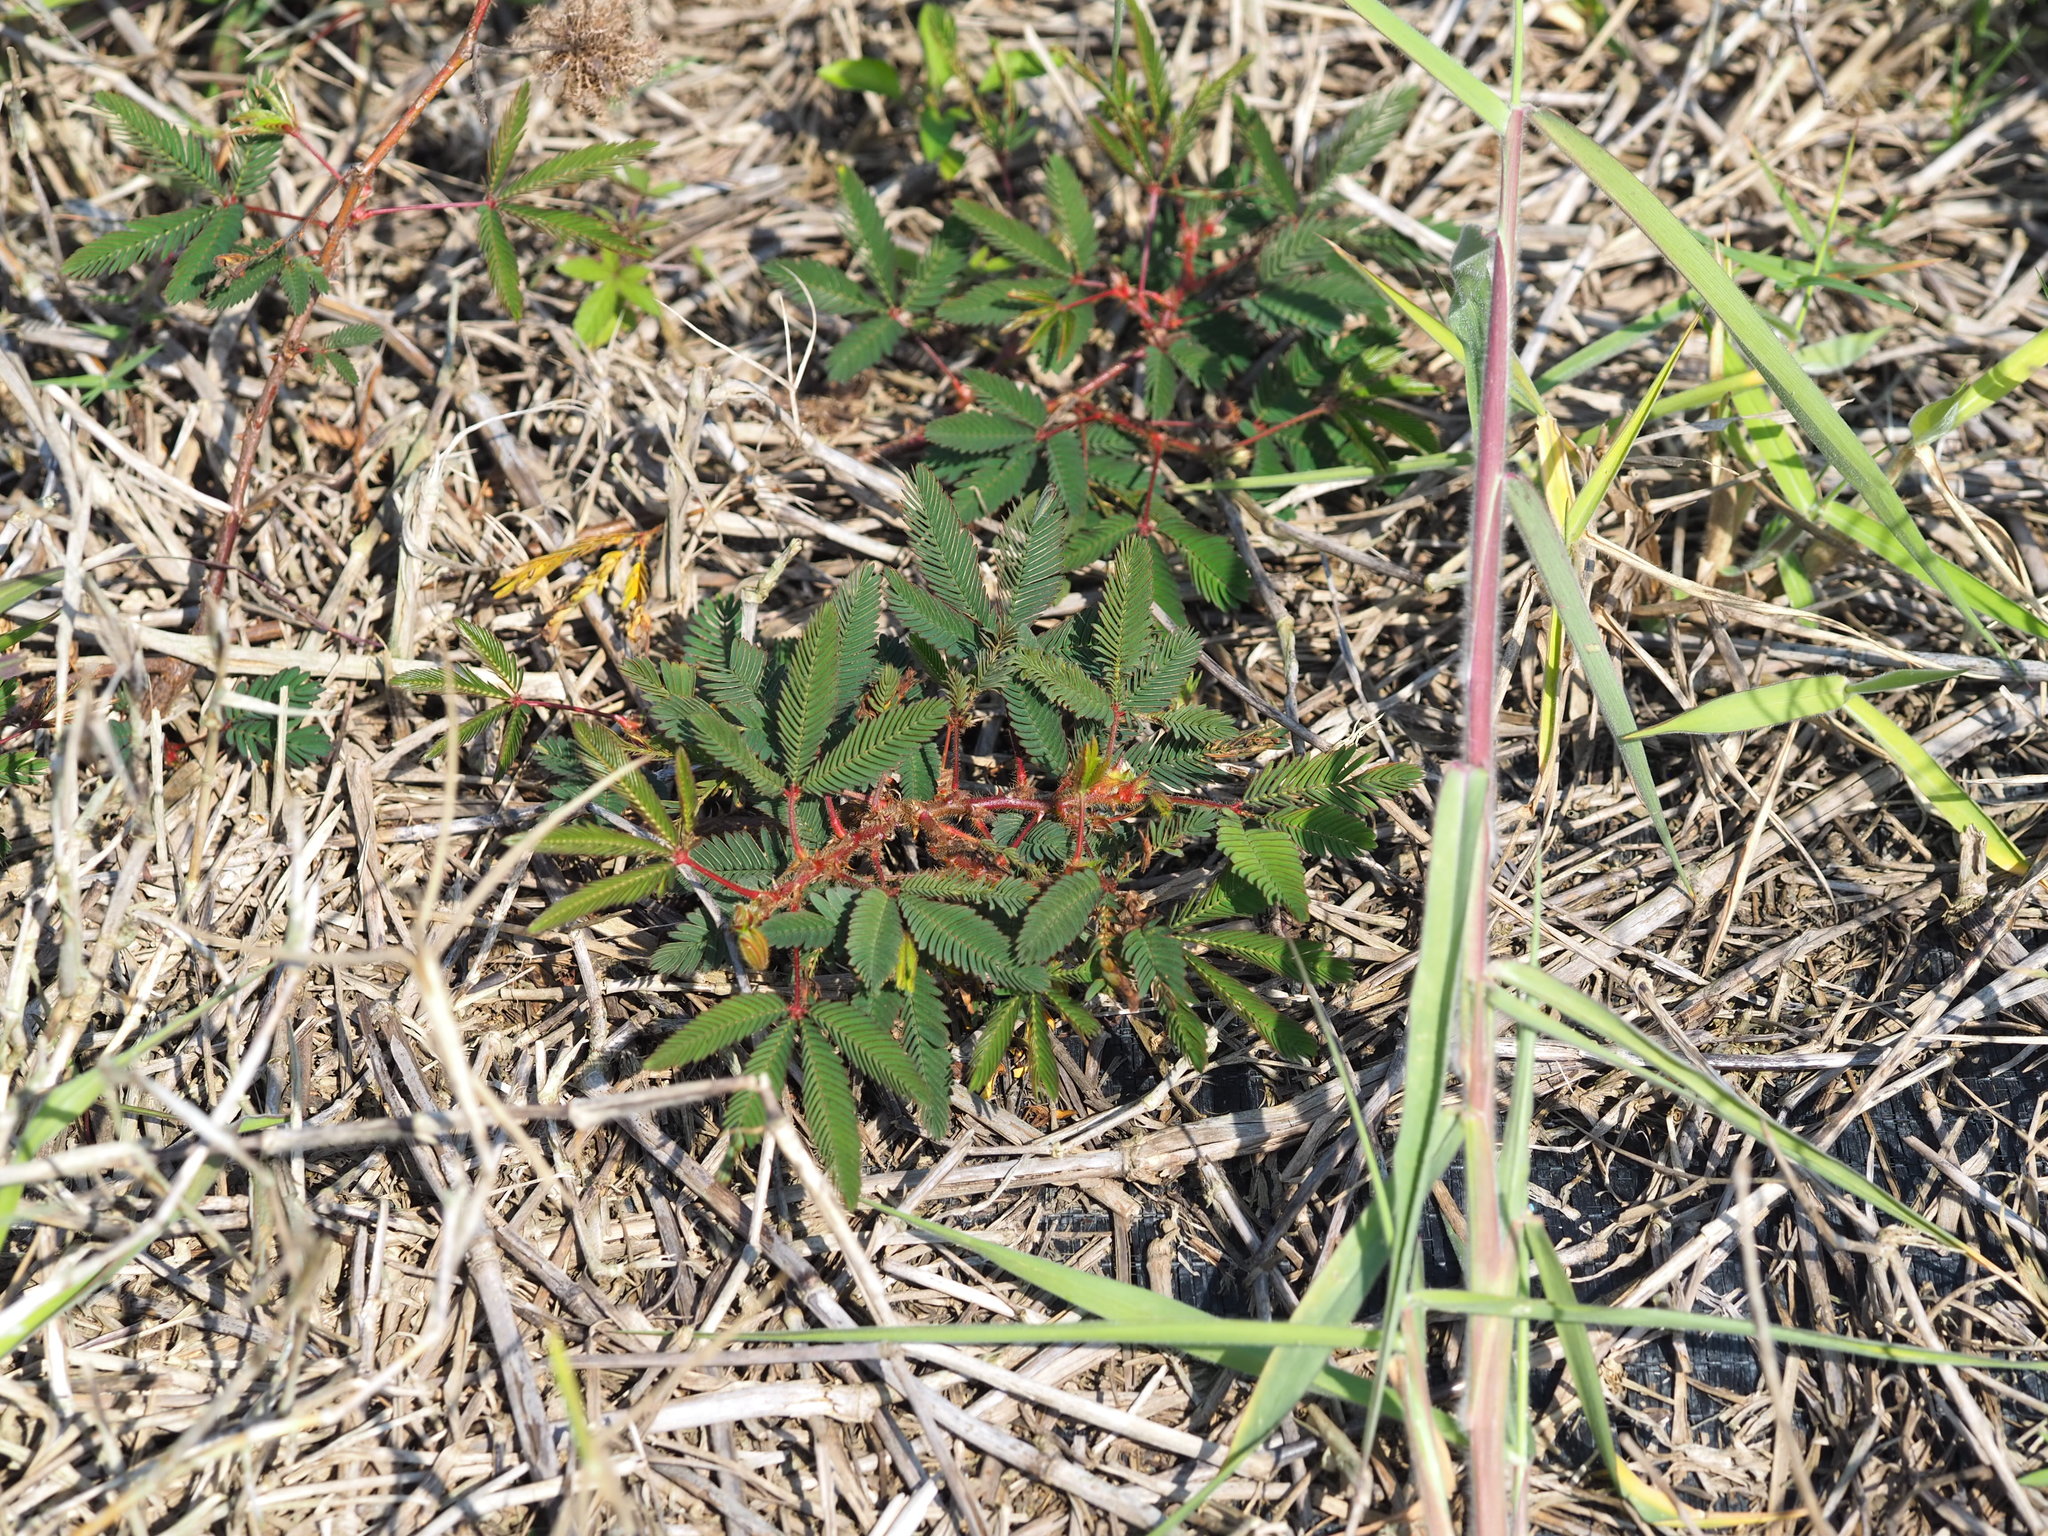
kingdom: Plantae
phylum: Tracheophyta
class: Magnoliopsida
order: Fabales
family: Fabaceae
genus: Mimosa
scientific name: Mimosa pudica
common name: Sensitive plant
